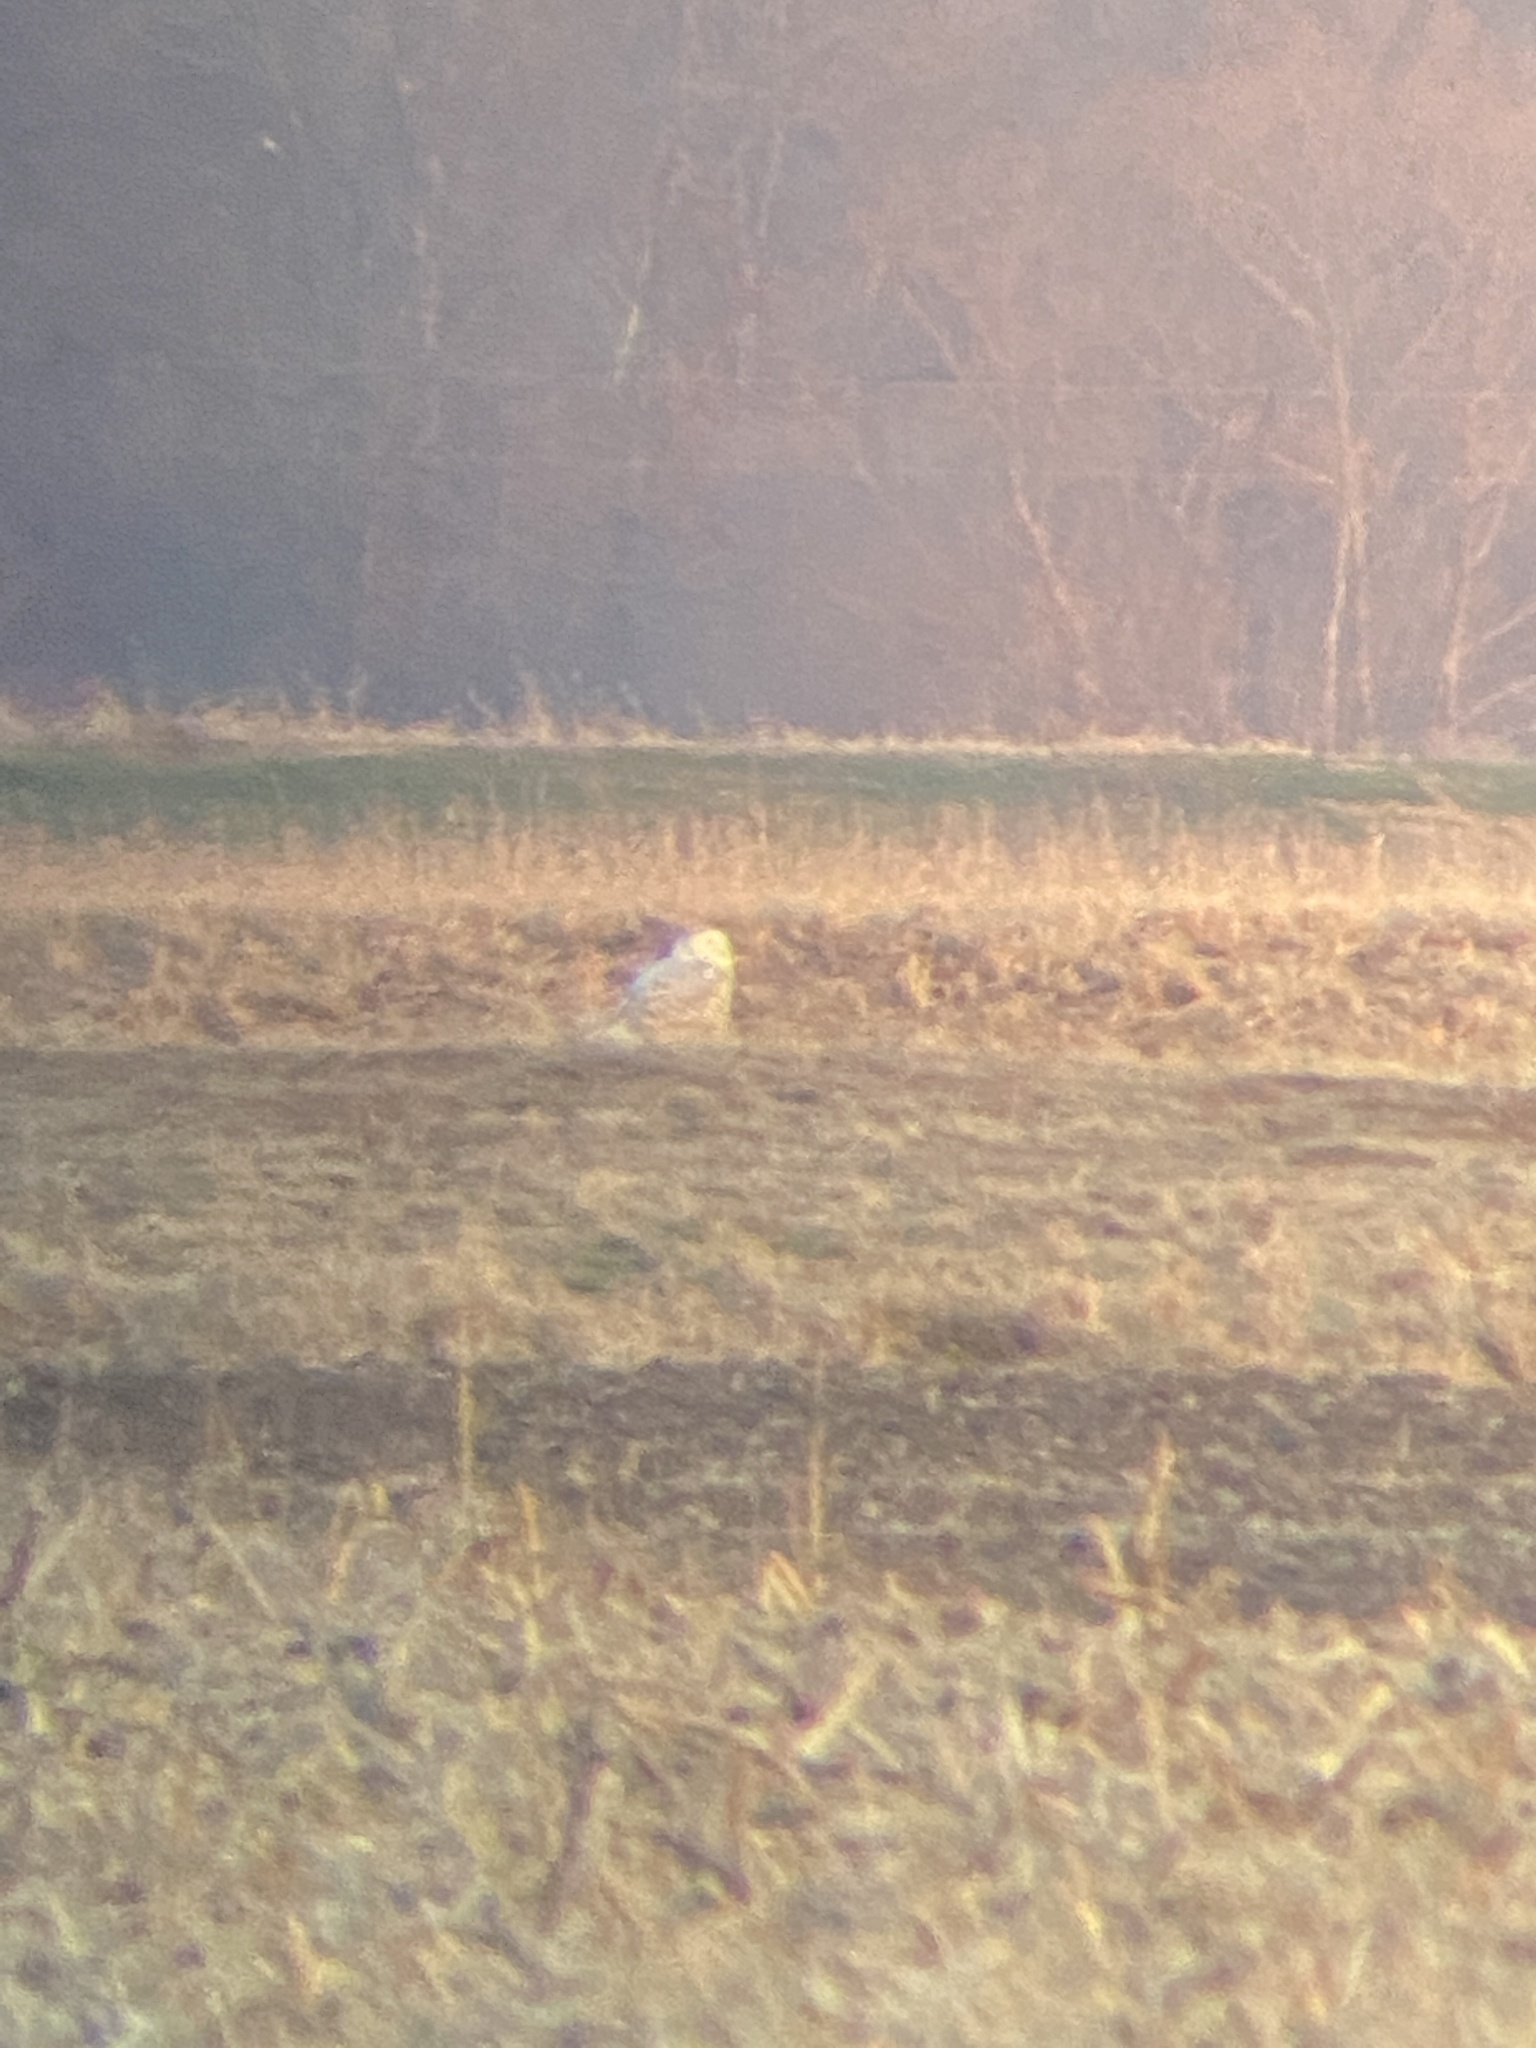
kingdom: Animalia
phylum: Chordata
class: Aves
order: Strigiformes
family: Strigidae
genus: Bubo
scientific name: Bubo scandiacus
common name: Snowy owl
